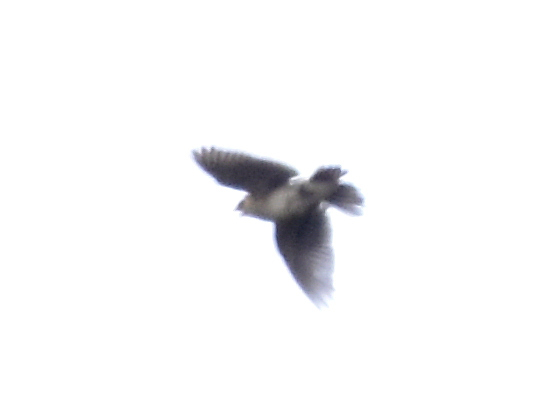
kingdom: Animalia
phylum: Chordata
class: Aves
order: Passeriformes
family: Alaudidae
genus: Alauda
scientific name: Alauda arvensis
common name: Eurasian skylark
